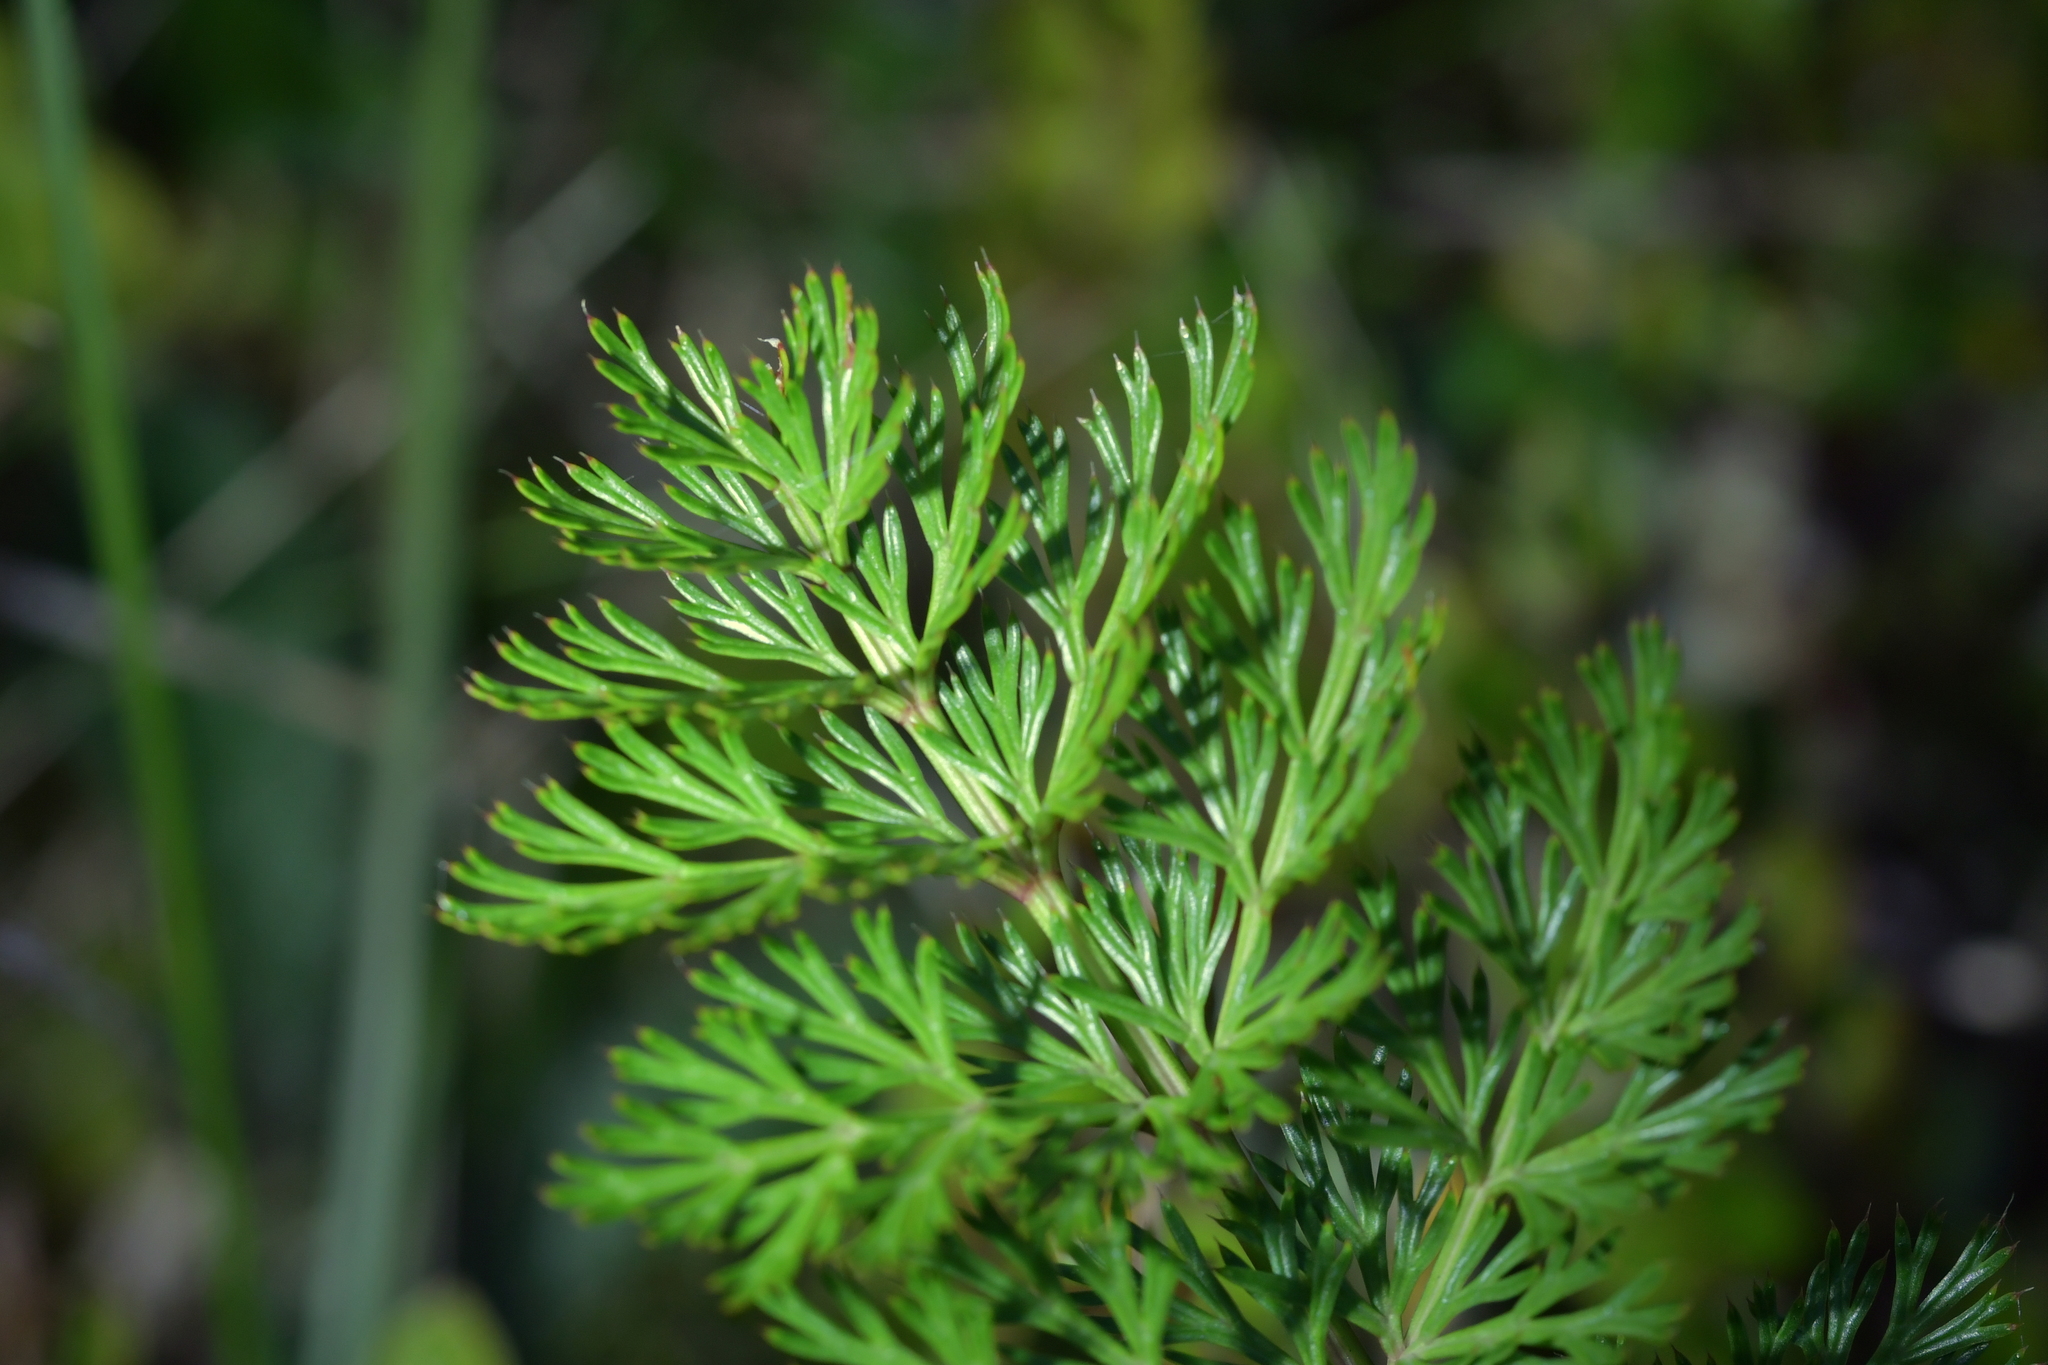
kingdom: Plantae
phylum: Tracheophyta
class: Magnoliopsida
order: Apiales
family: Apiaceae
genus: Anisotome
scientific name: Anisotome haastii
